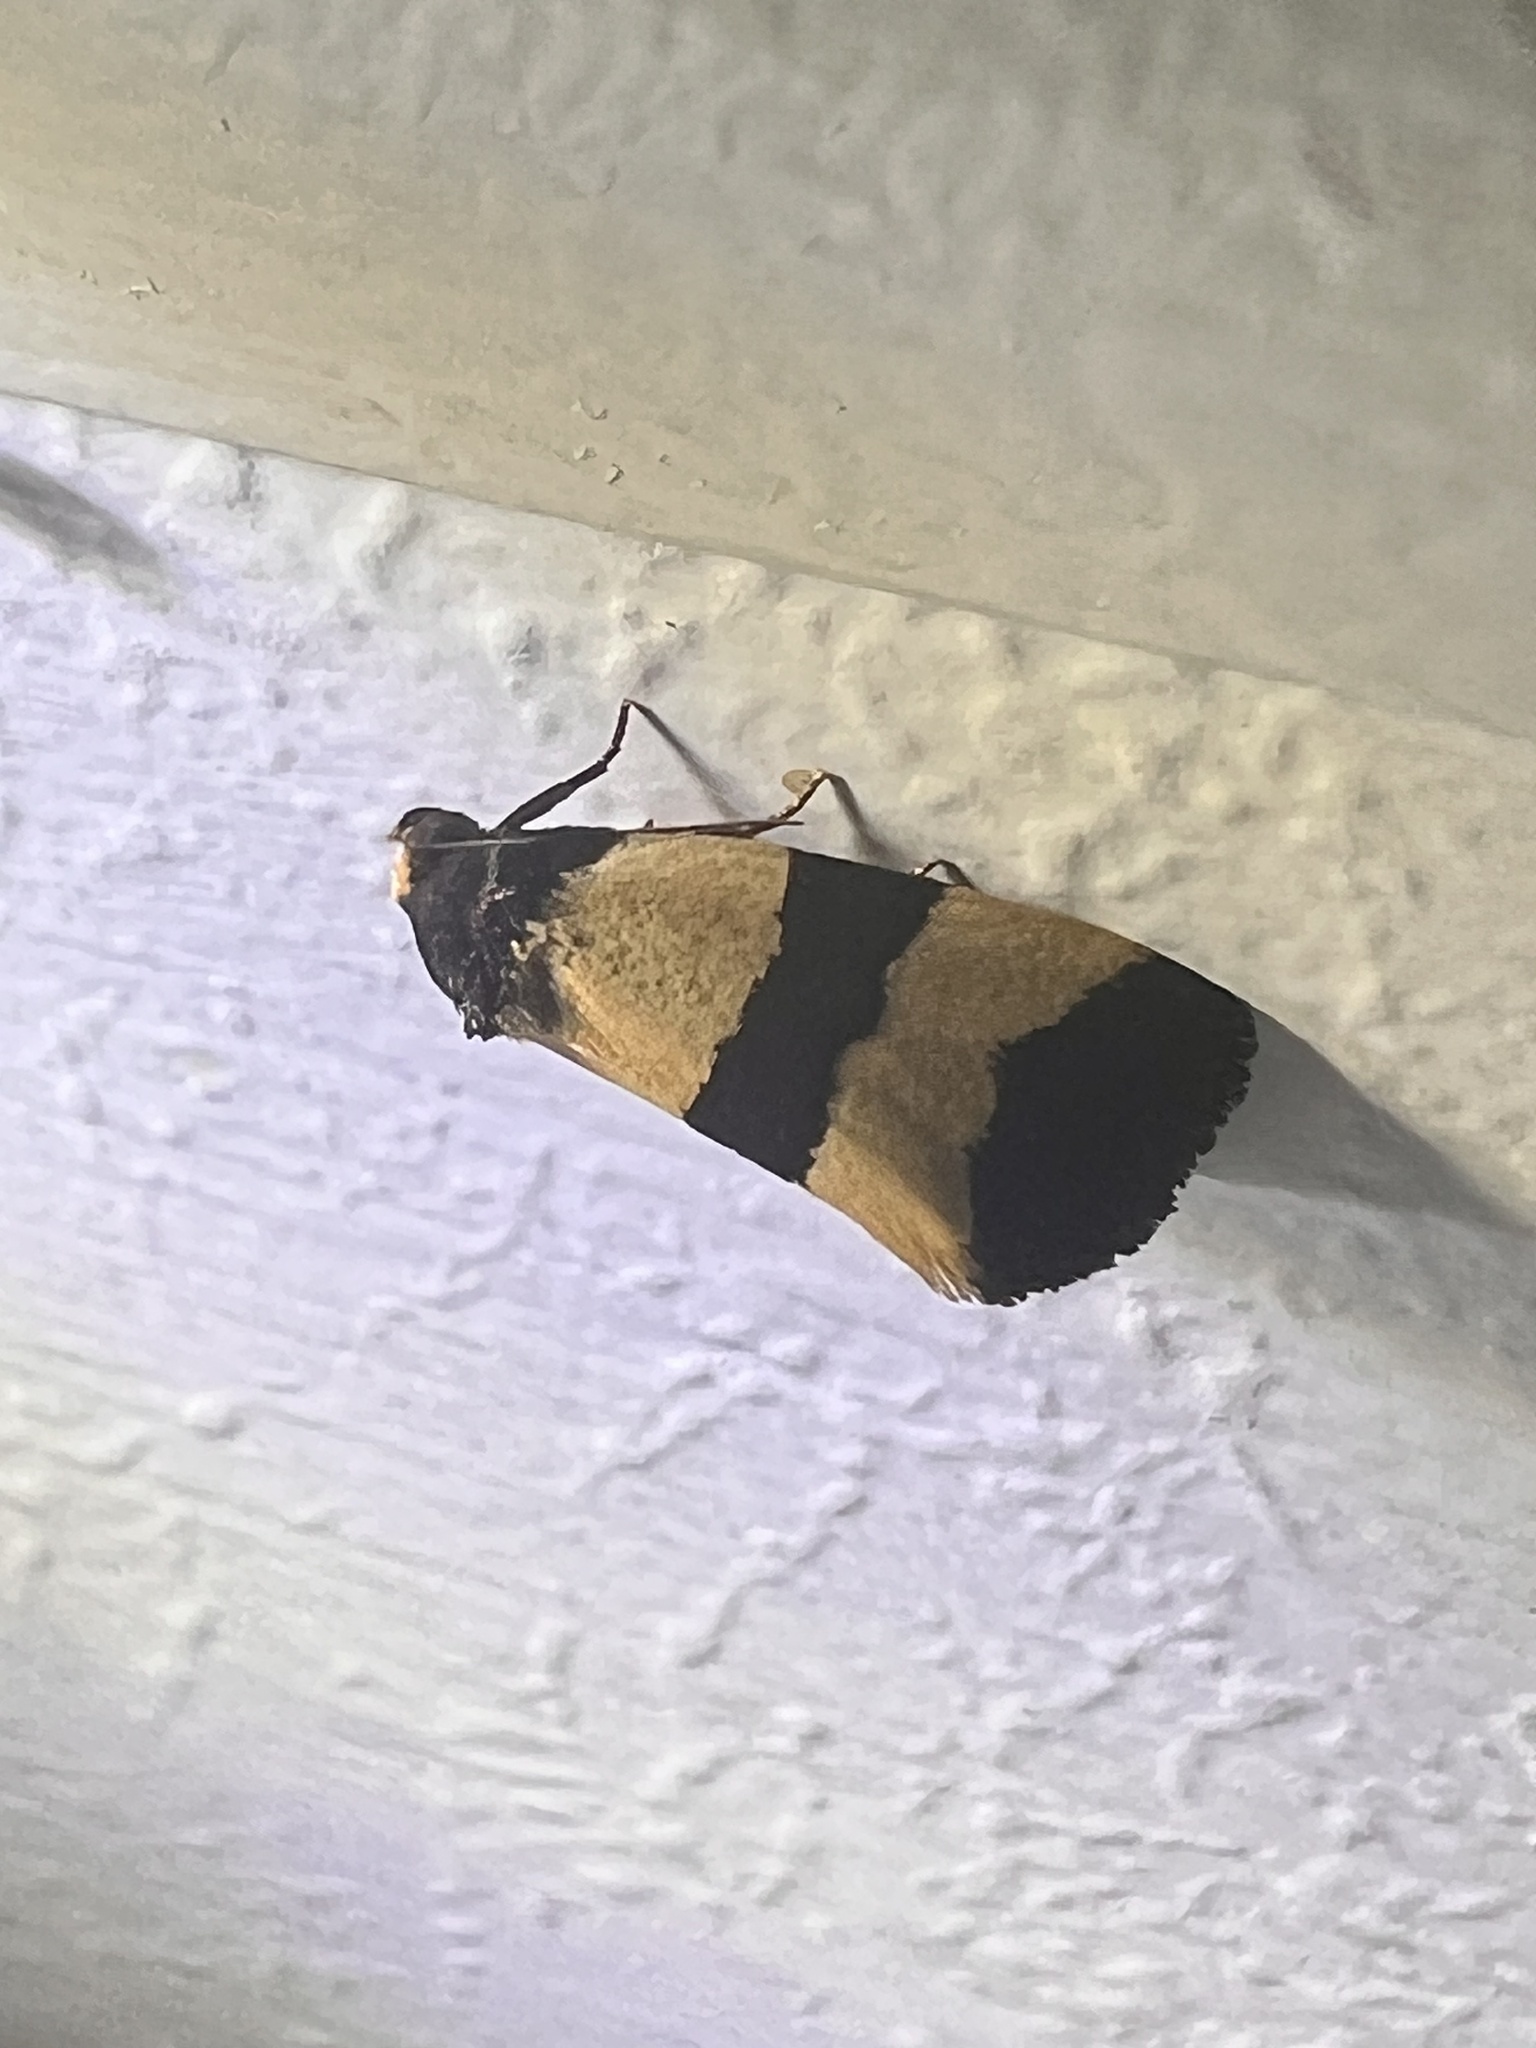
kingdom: Animalia
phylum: Arthropoda
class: Insecta
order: Lepidoptera
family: Noctuidae
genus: Micrapatetis
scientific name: Micrapatetis leucozona
